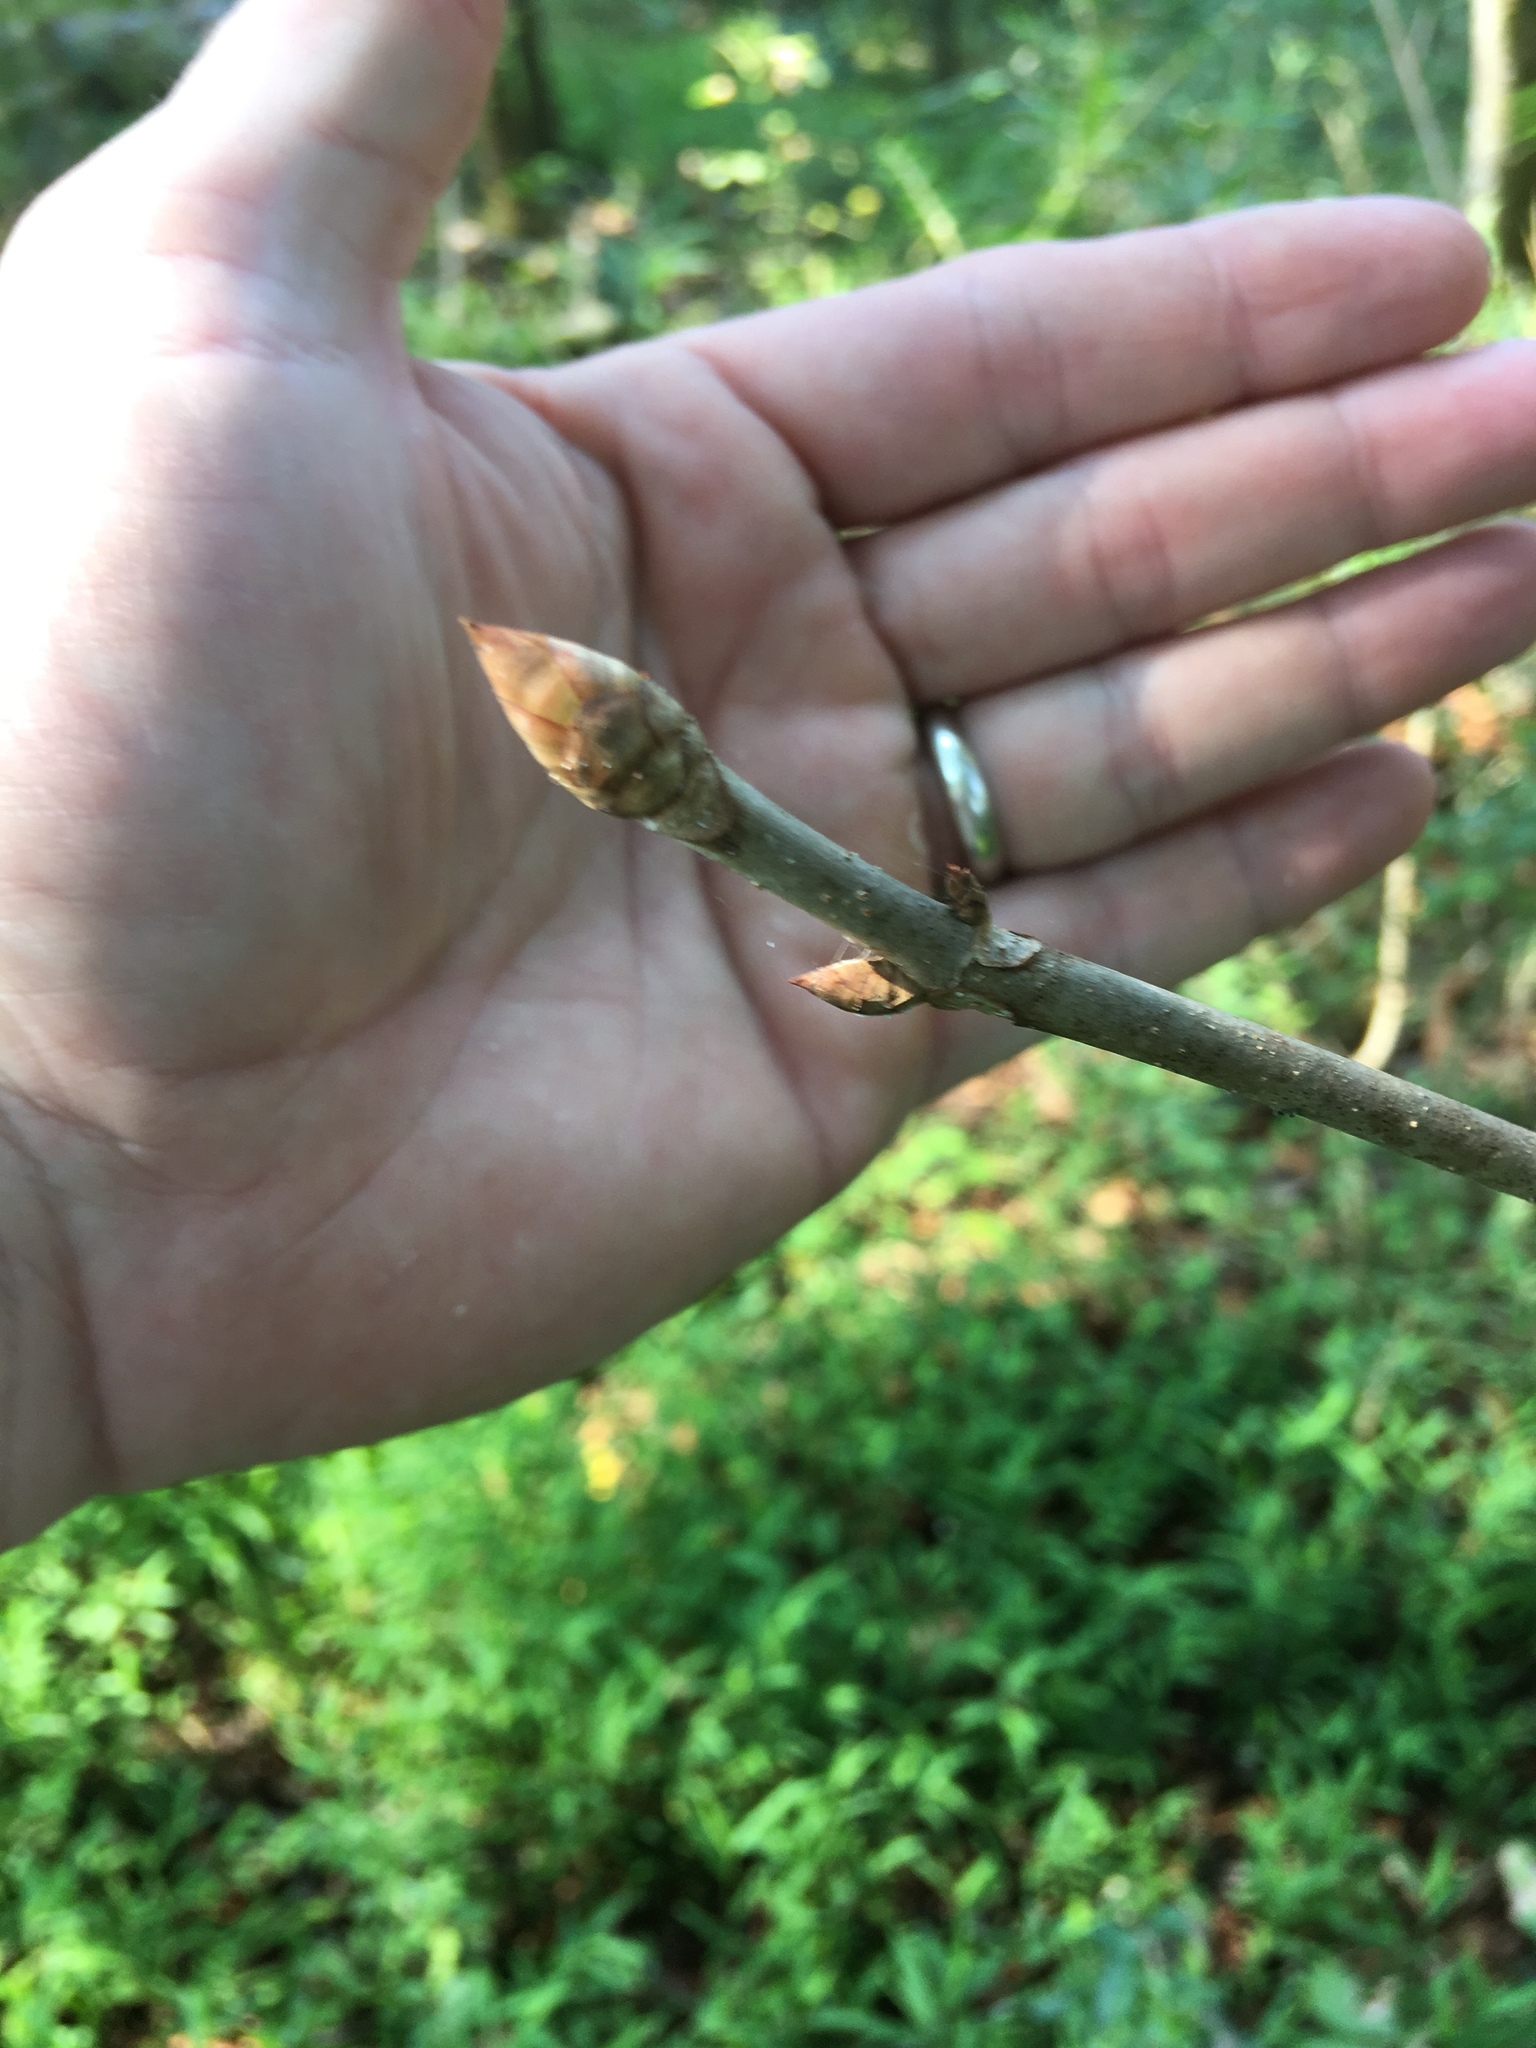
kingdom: Plantae
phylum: Tracheophyta
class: Magnoliopsida
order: Sapindales
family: Sapindaceae
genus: Aesculus
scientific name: Aesculus flava
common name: Yellow buckeye
